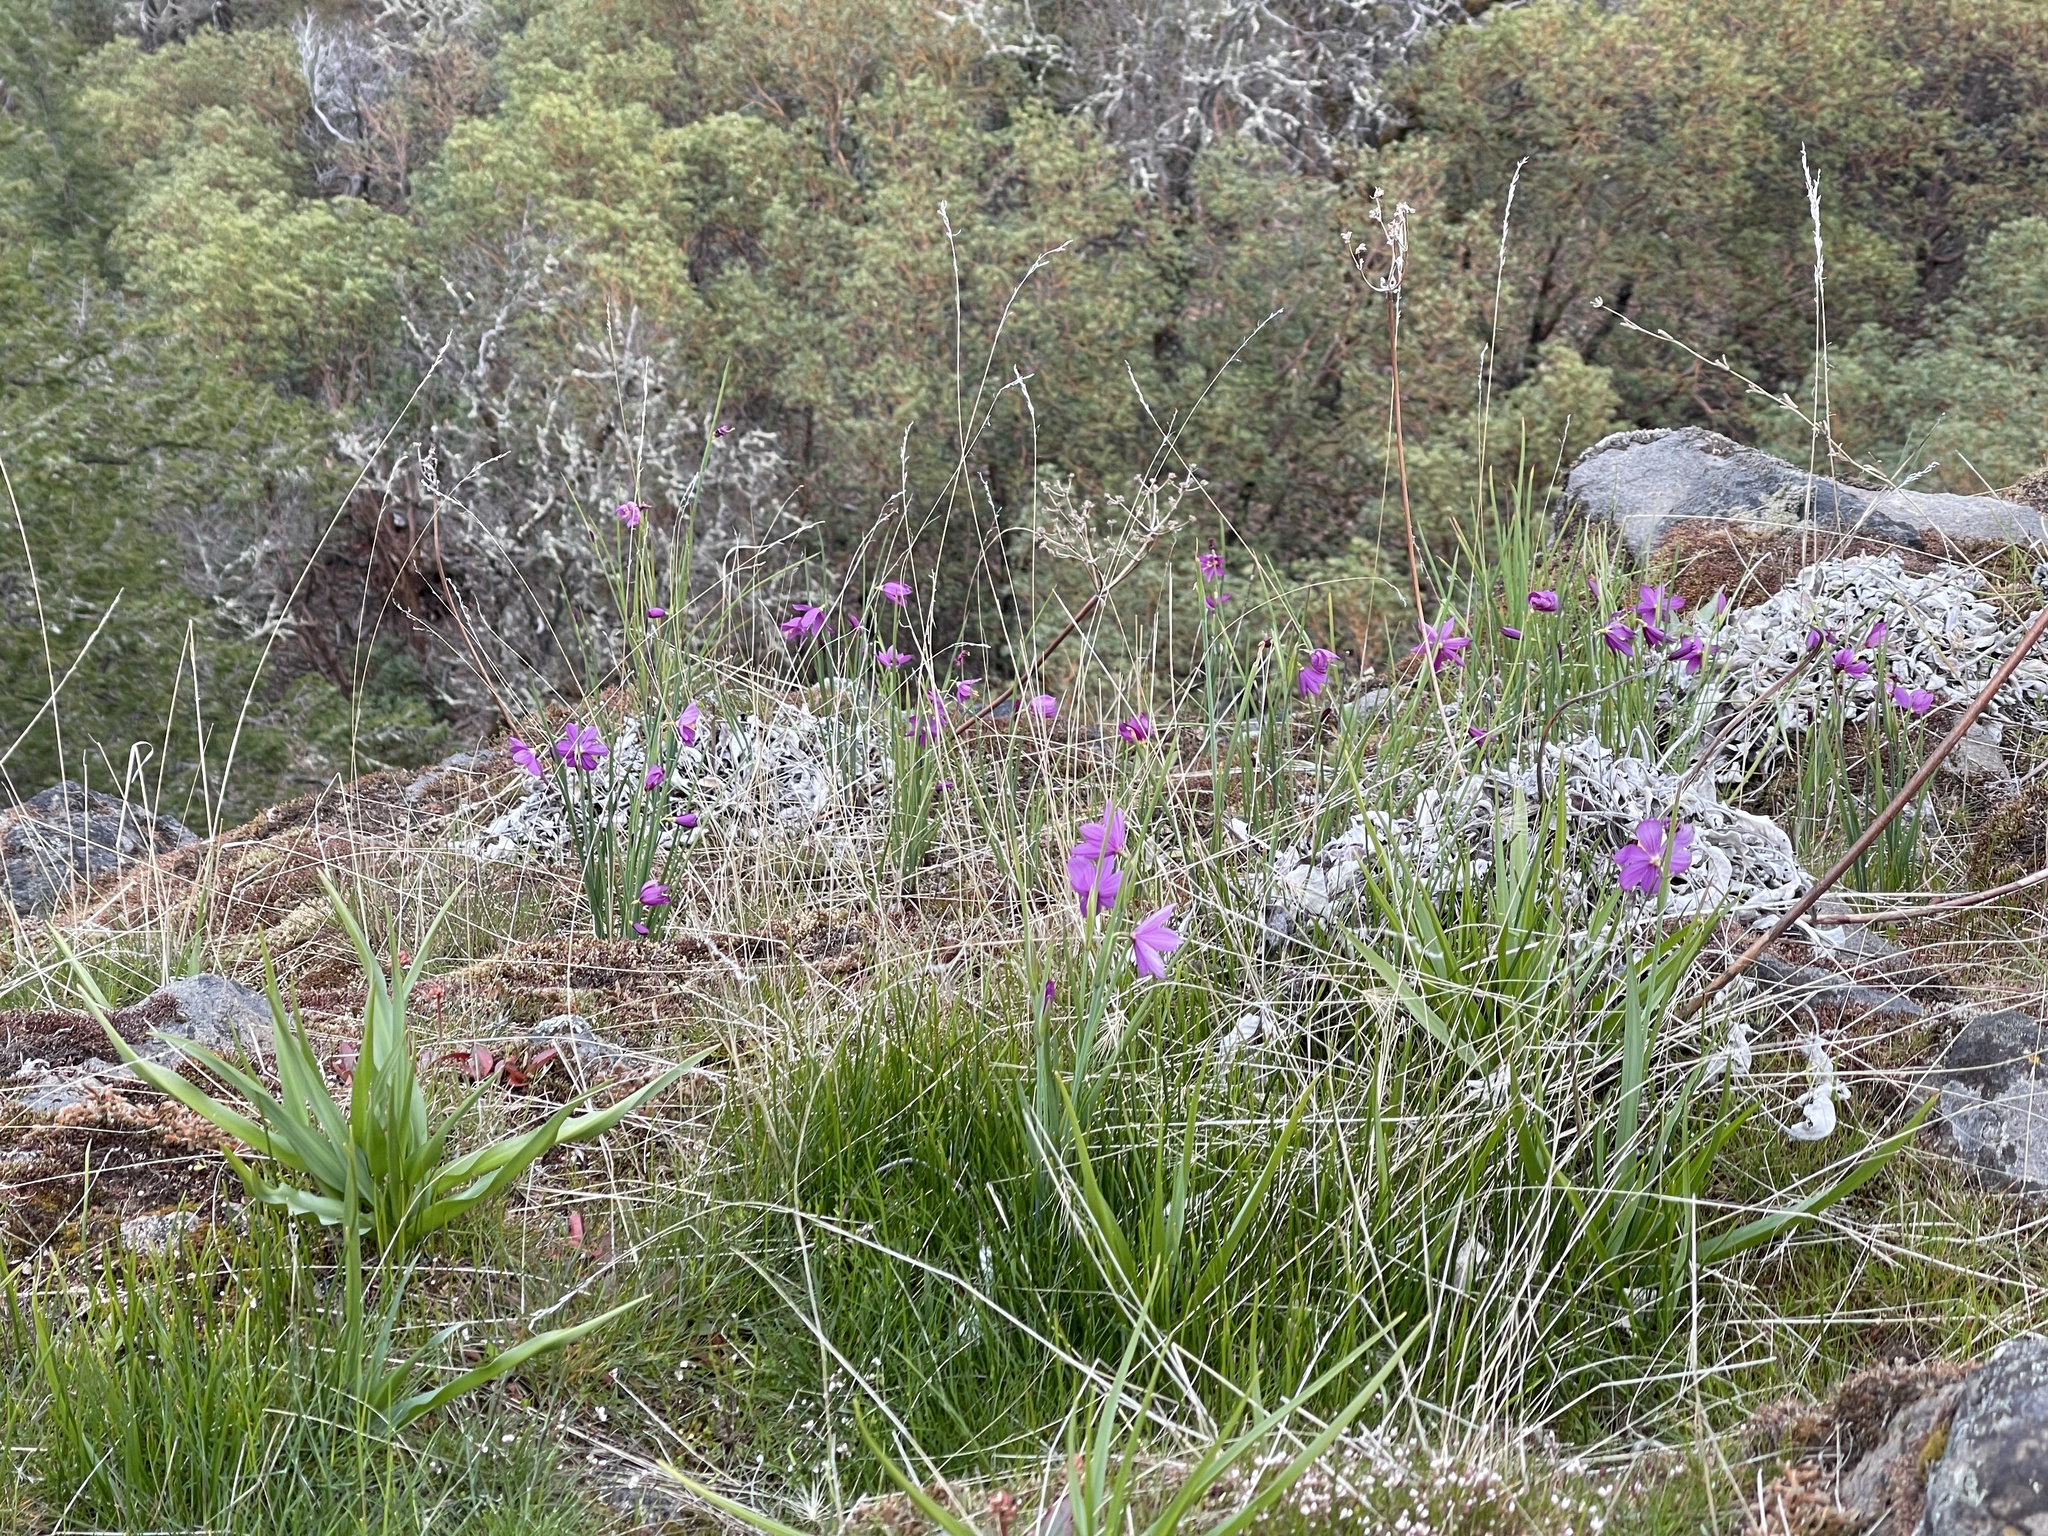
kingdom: Plantae
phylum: Tracheophyta
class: Liliopsida
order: Asparagales
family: Iridaceae
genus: Olsynium
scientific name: Olsynium douglasii
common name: Douglas' grasswidow
